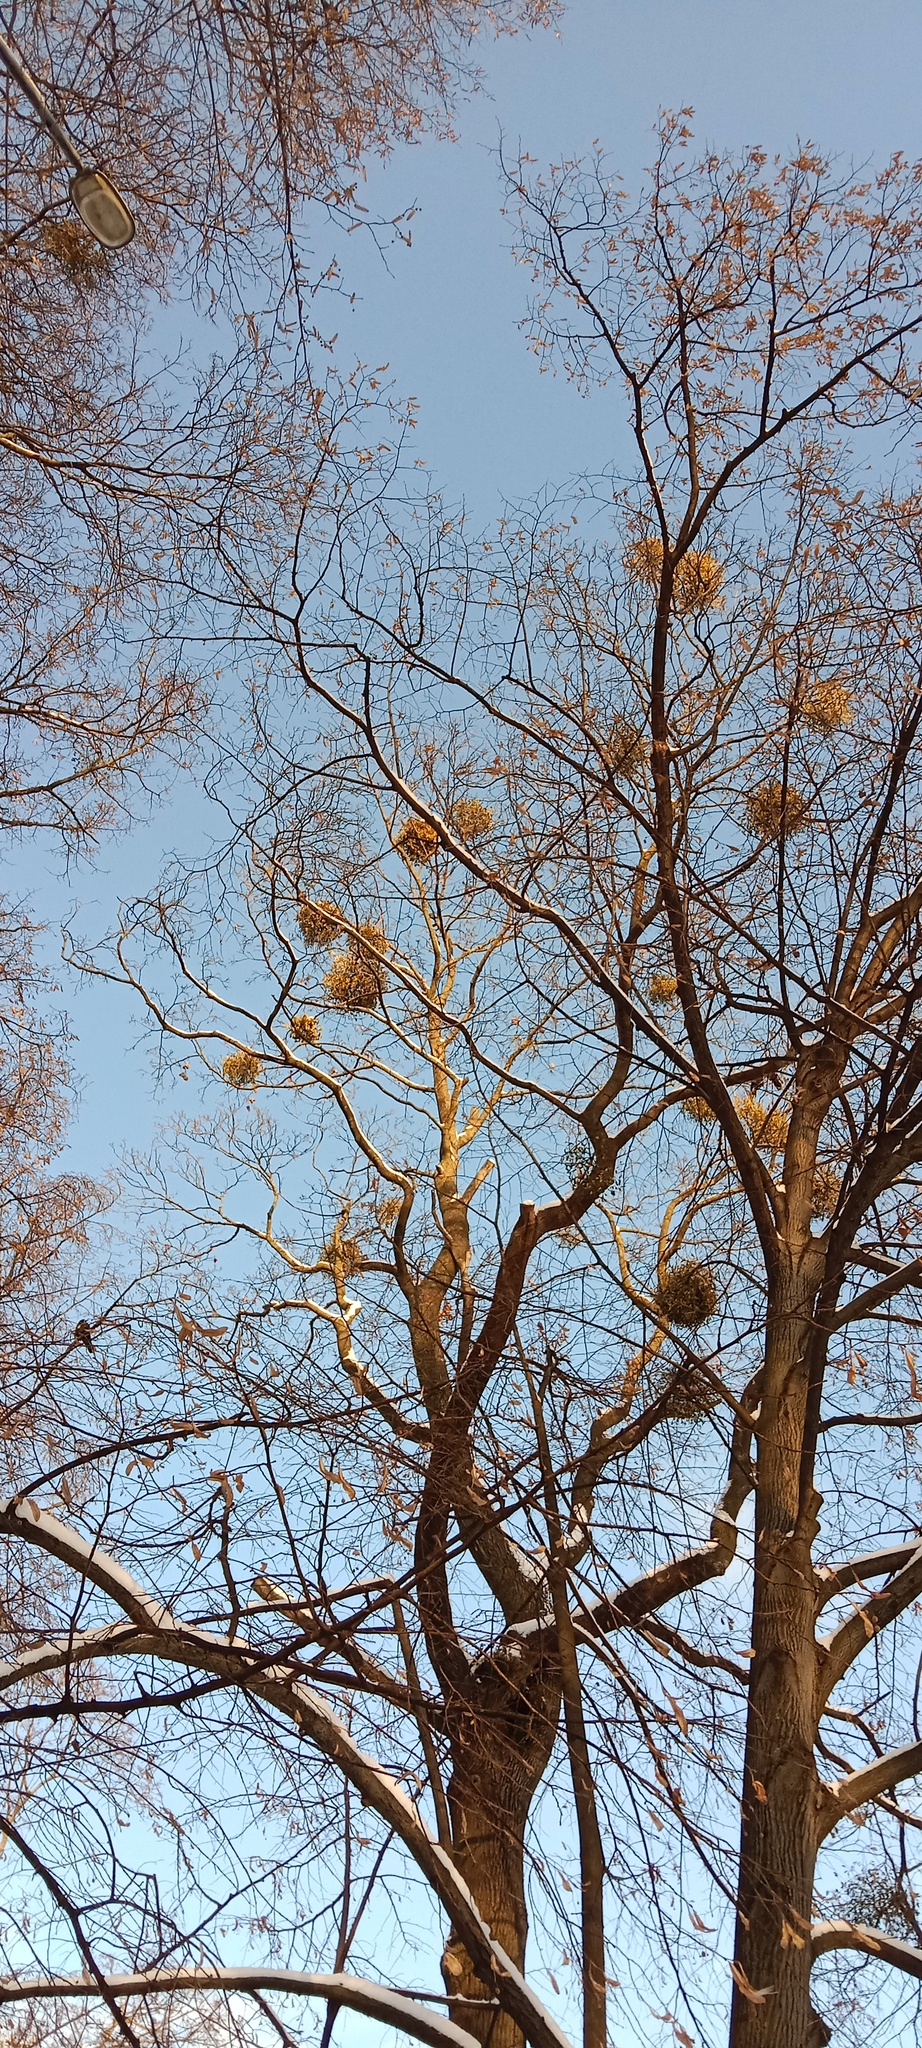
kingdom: Plantae
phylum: Tracheophyta
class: Magnoliopsida
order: Santalales
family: Viscaceae
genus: Viscum
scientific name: Viscum album
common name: Mistletoe
